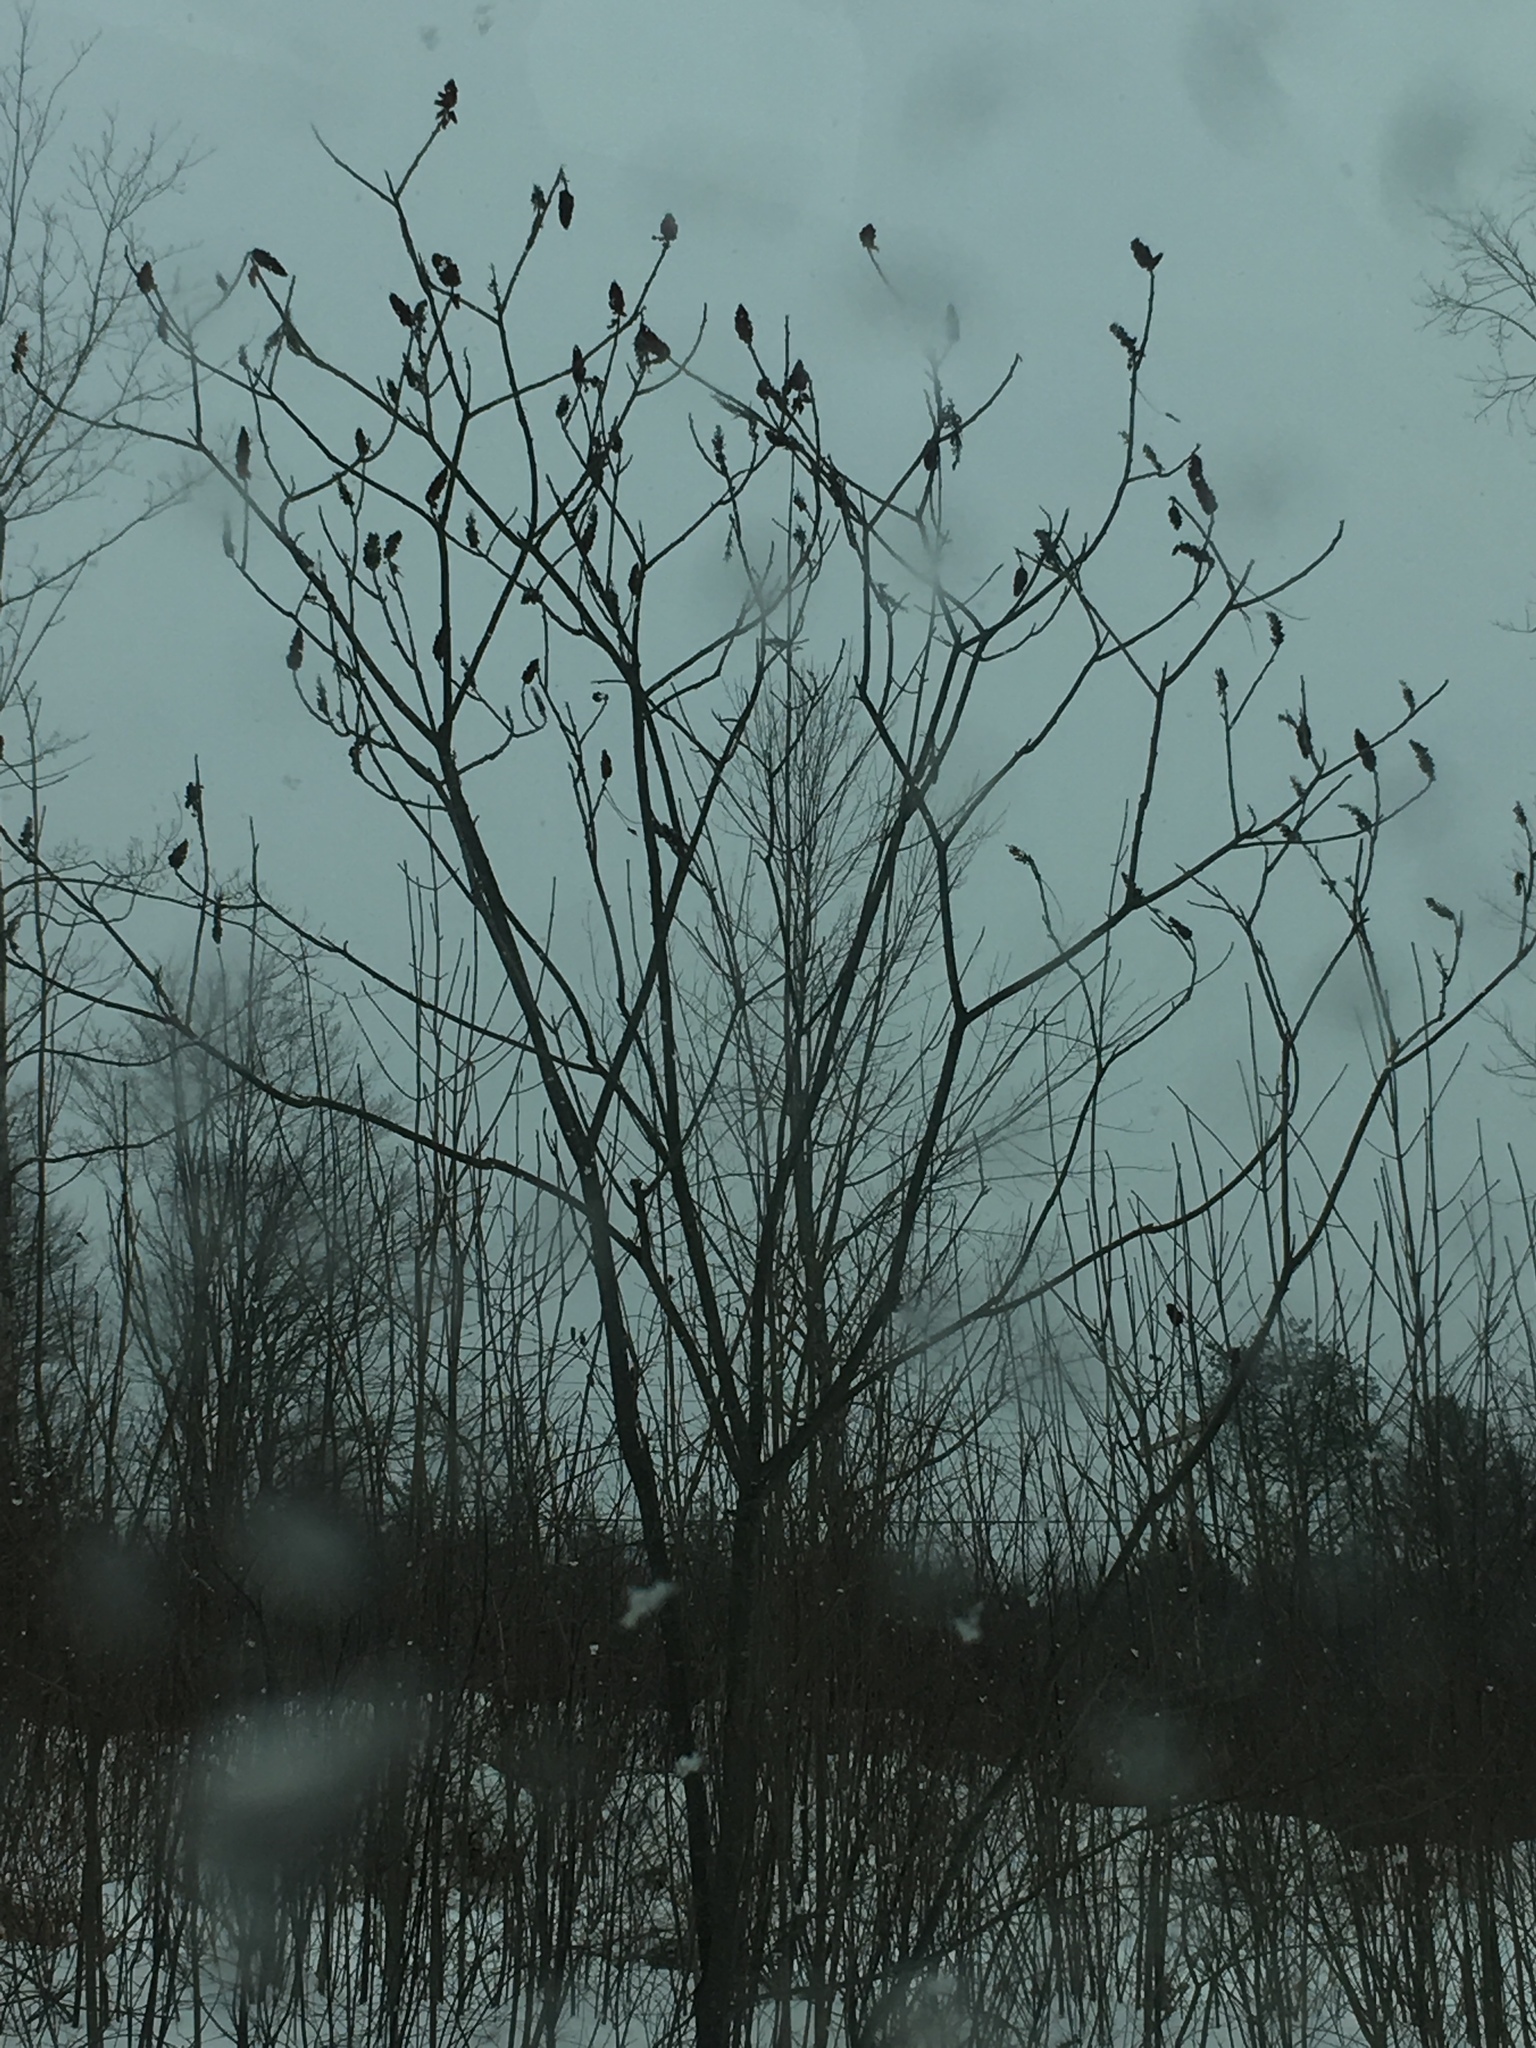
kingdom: Plantae
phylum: Tracheophyta
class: Magnoliopsida
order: Sapindales
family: Anacardiaceae
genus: Rhus
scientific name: Rhus typhina
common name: Staghorn sumac
